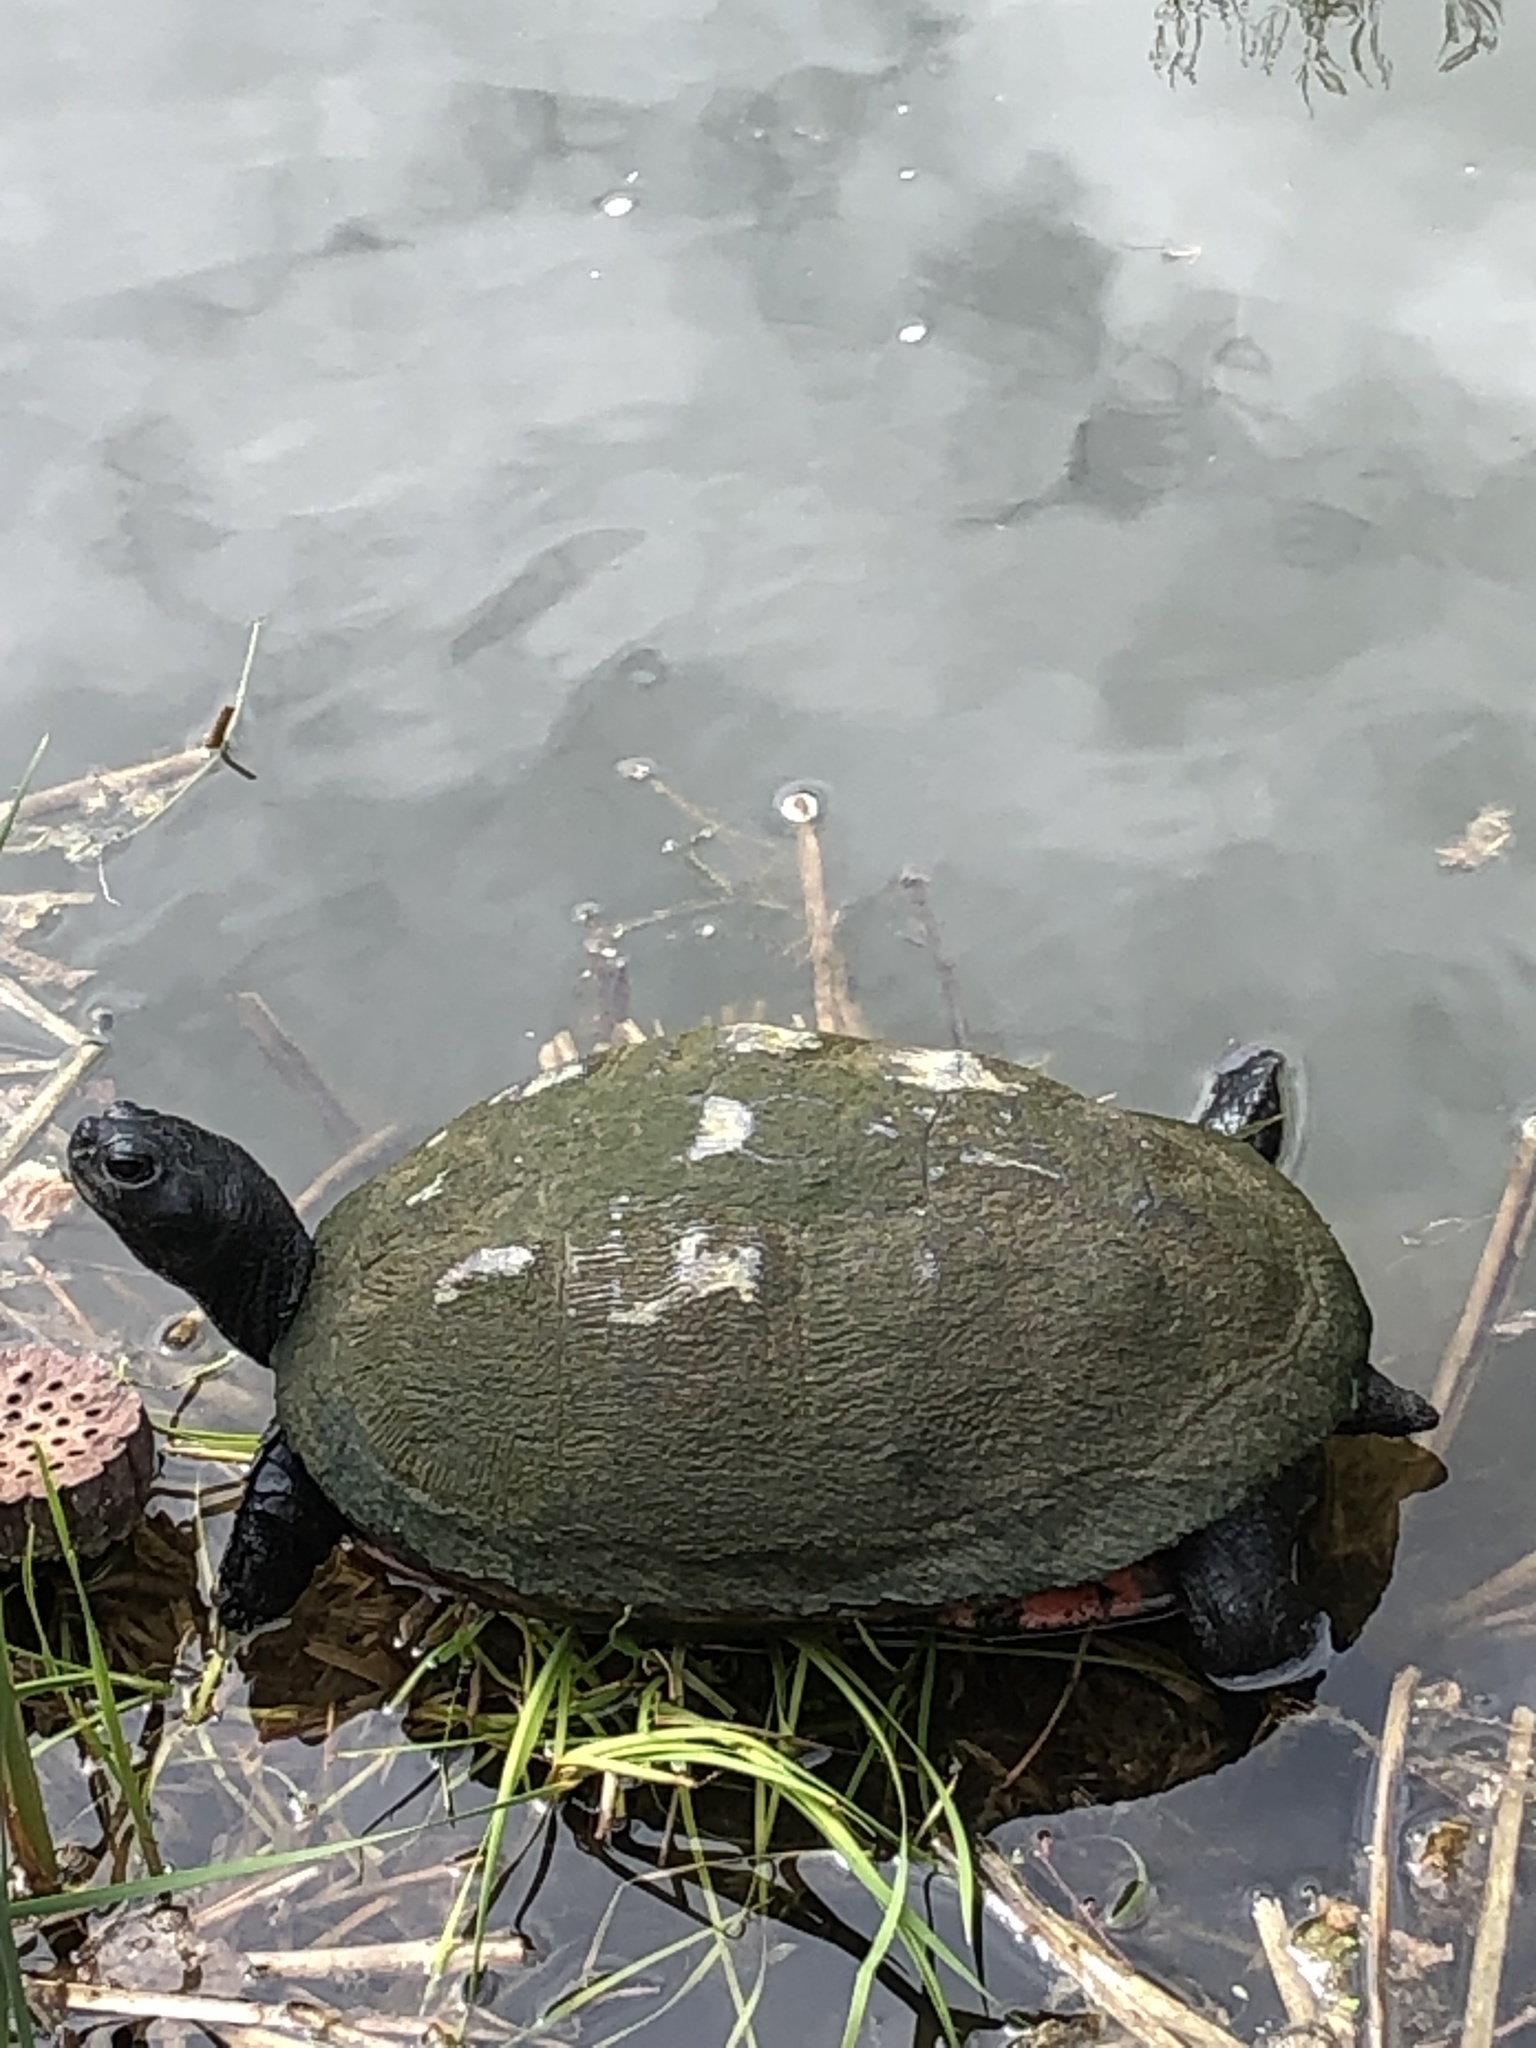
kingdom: Animalia
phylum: Chordata
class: Testudines
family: Emydidae
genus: Pseudemys
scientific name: Pseudemys rubriventris
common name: American red-bellied turtle
